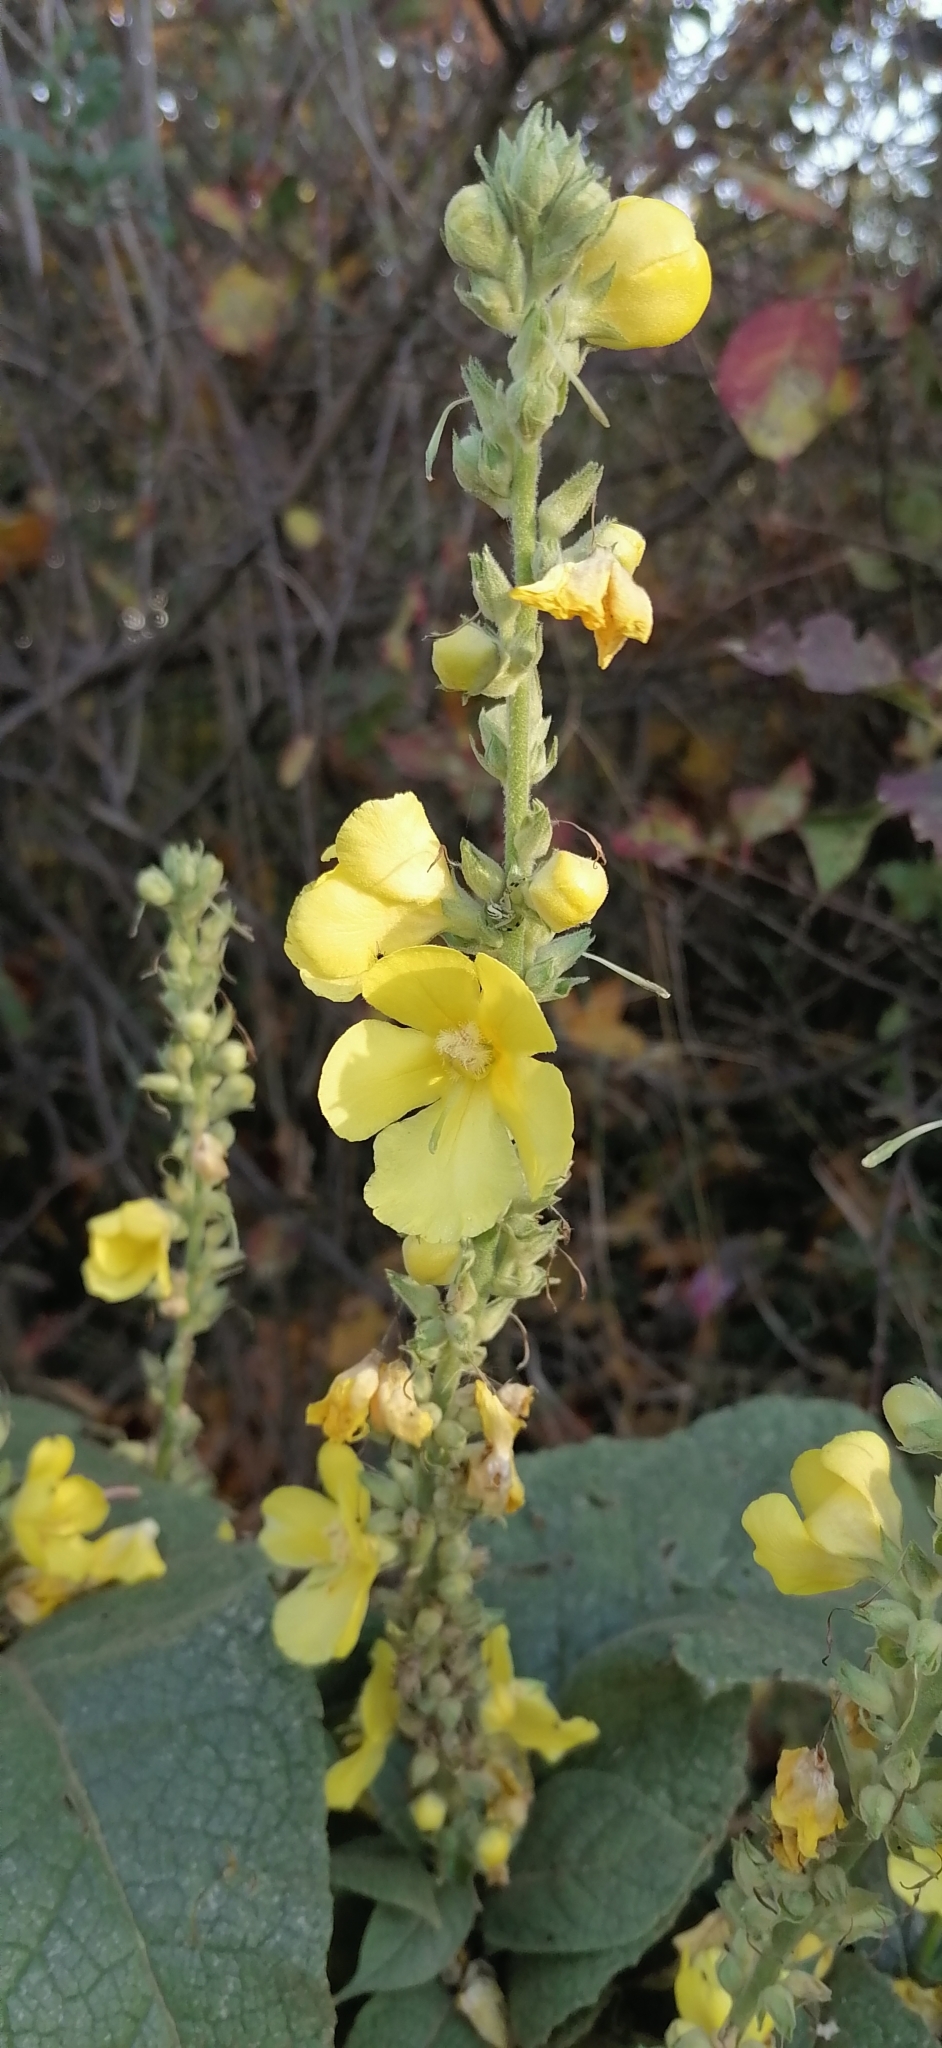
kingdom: Plantae
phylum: Tracheophyta
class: Magnoliopsida
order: Lamiales
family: Scrophulariaceae
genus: Verbascum
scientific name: Verbascum phlomoides
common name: Orange mullein
